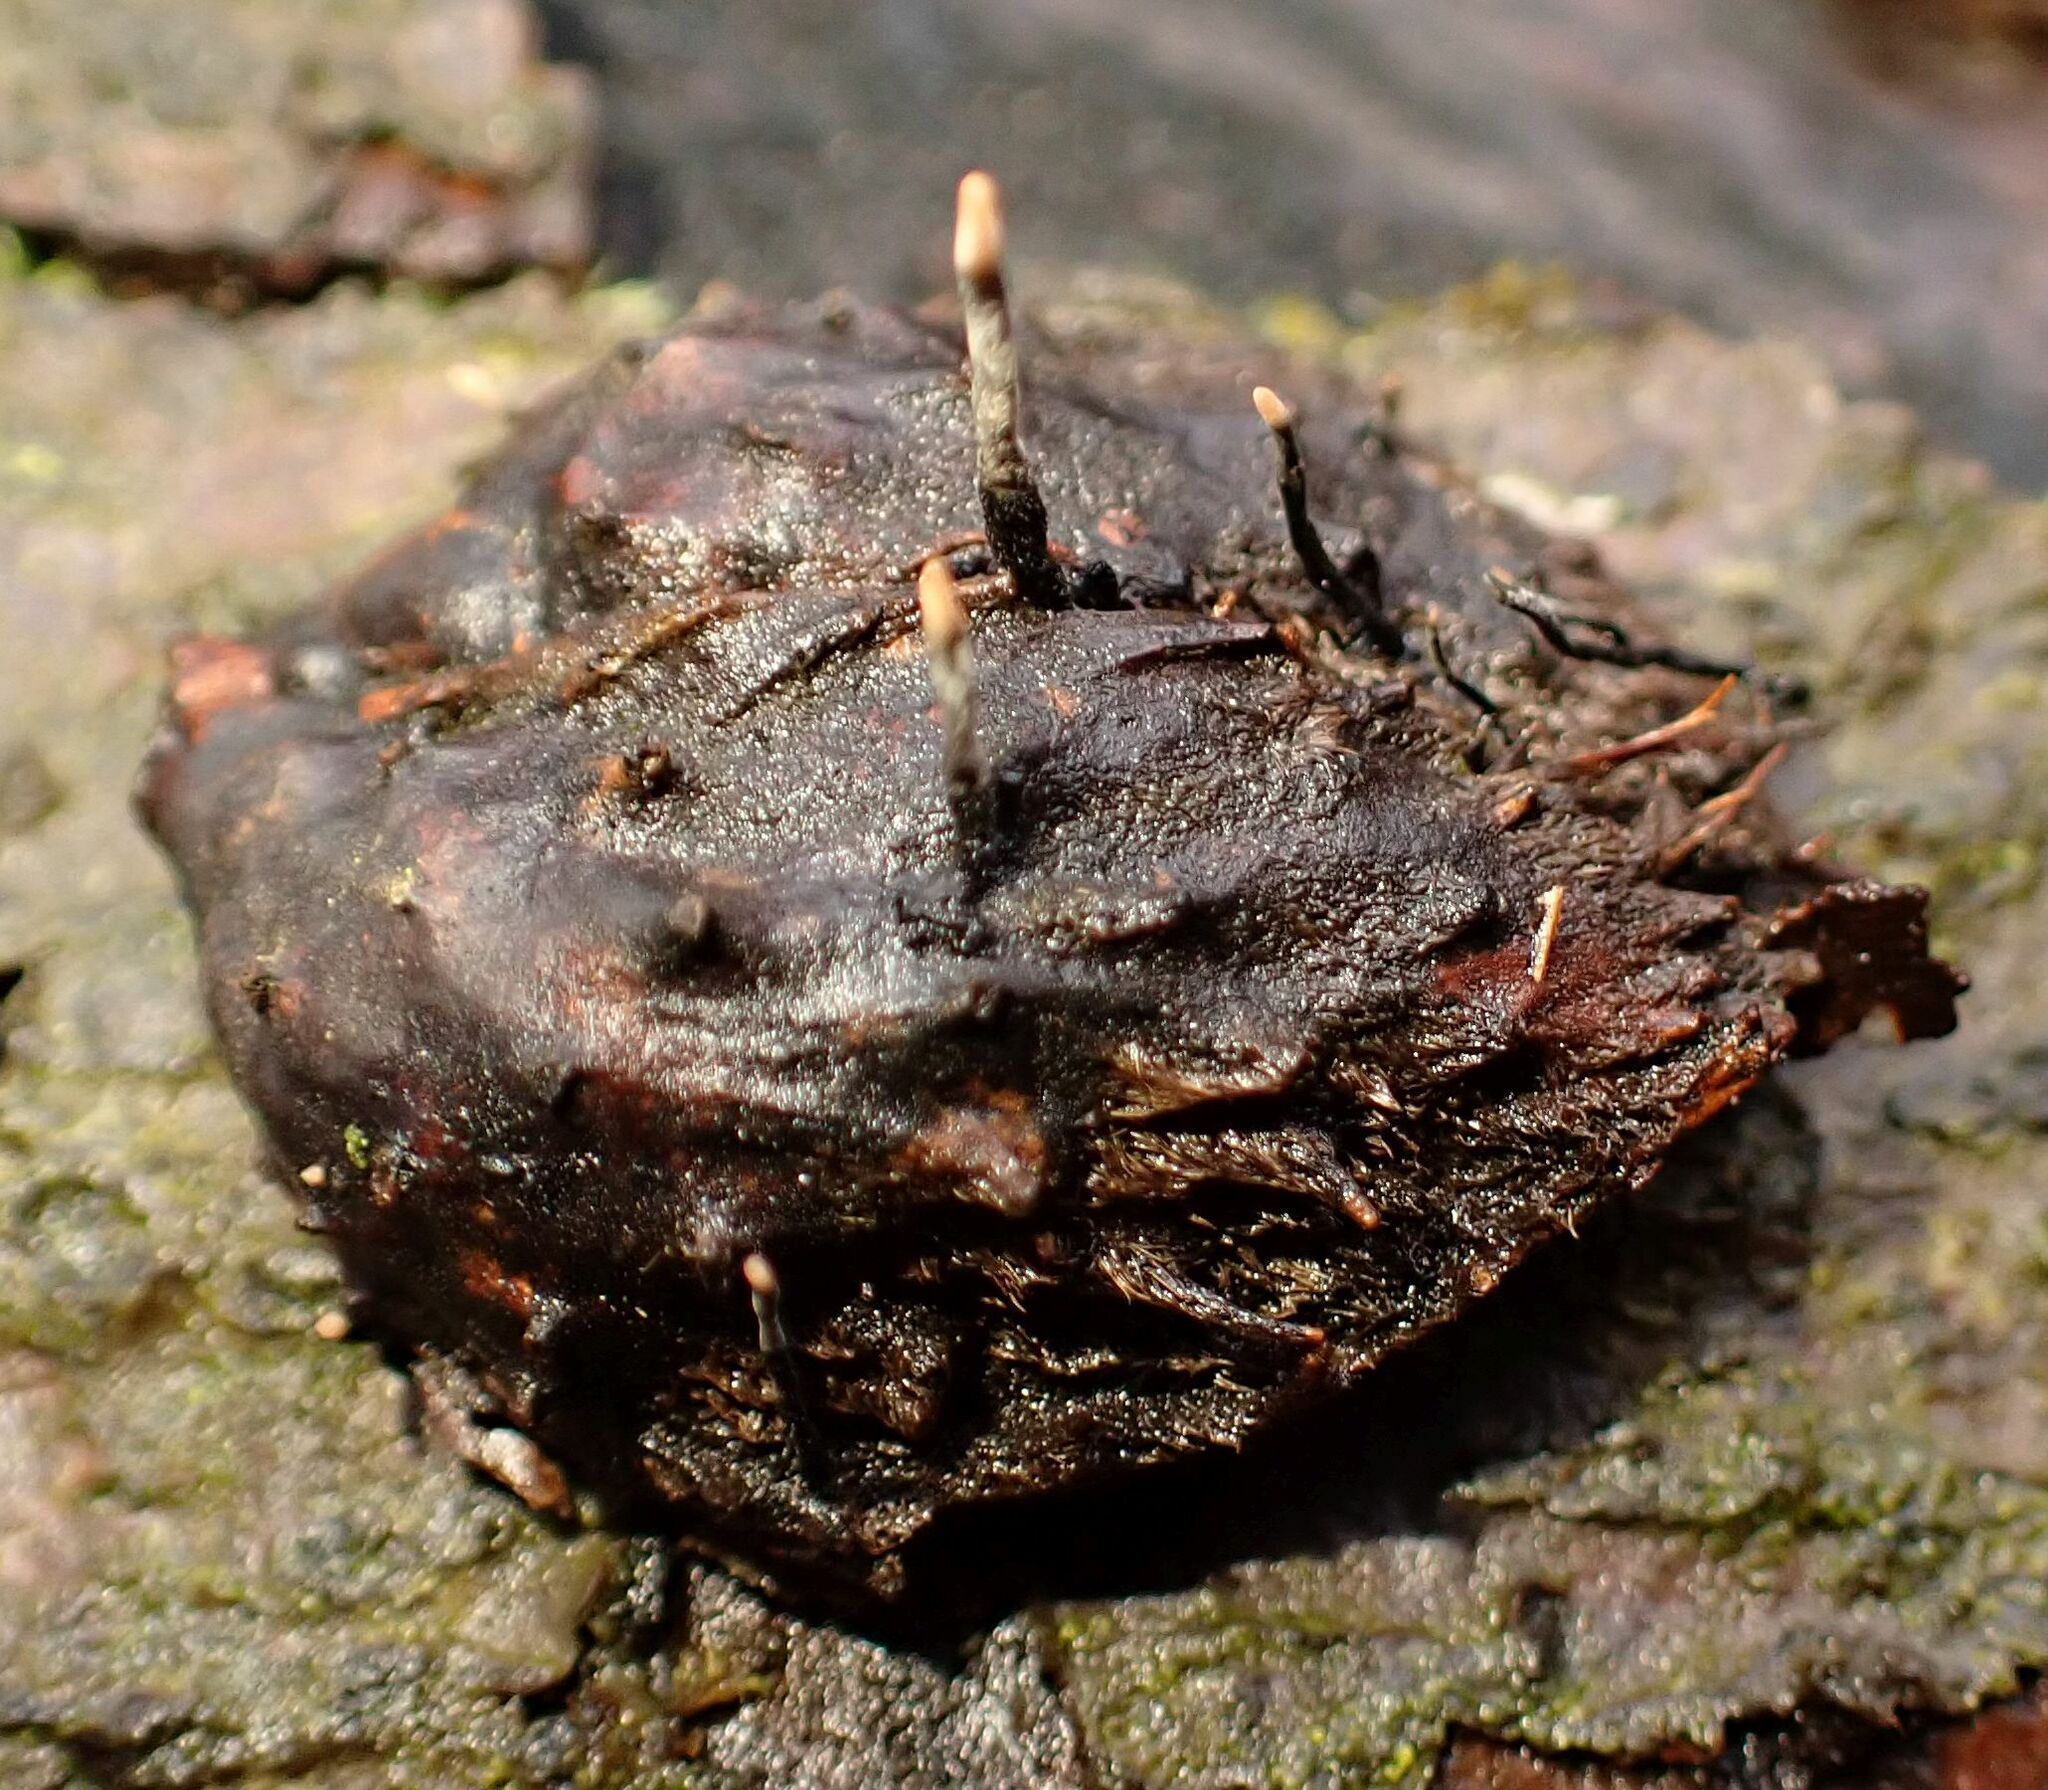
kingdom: Fungi
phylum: Ascomycota
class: Sordariomycetes
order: Xylariales
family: Xylariaceae
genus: Xylaria
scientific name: Xylaria carpophila
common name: Beechmast candlesnuff
